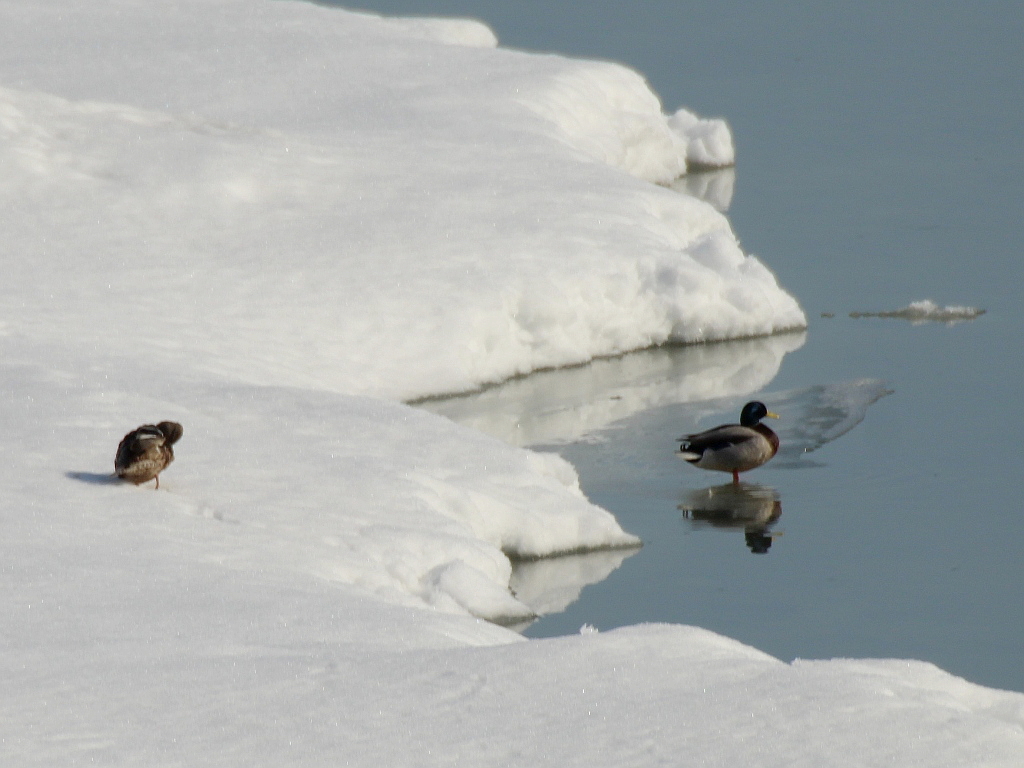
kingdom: Animalia
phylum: Chordata
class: Aves
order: Anseriformes
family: Anatidae
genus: Anas
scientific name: Anas platyrhynchos
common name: Mallard
